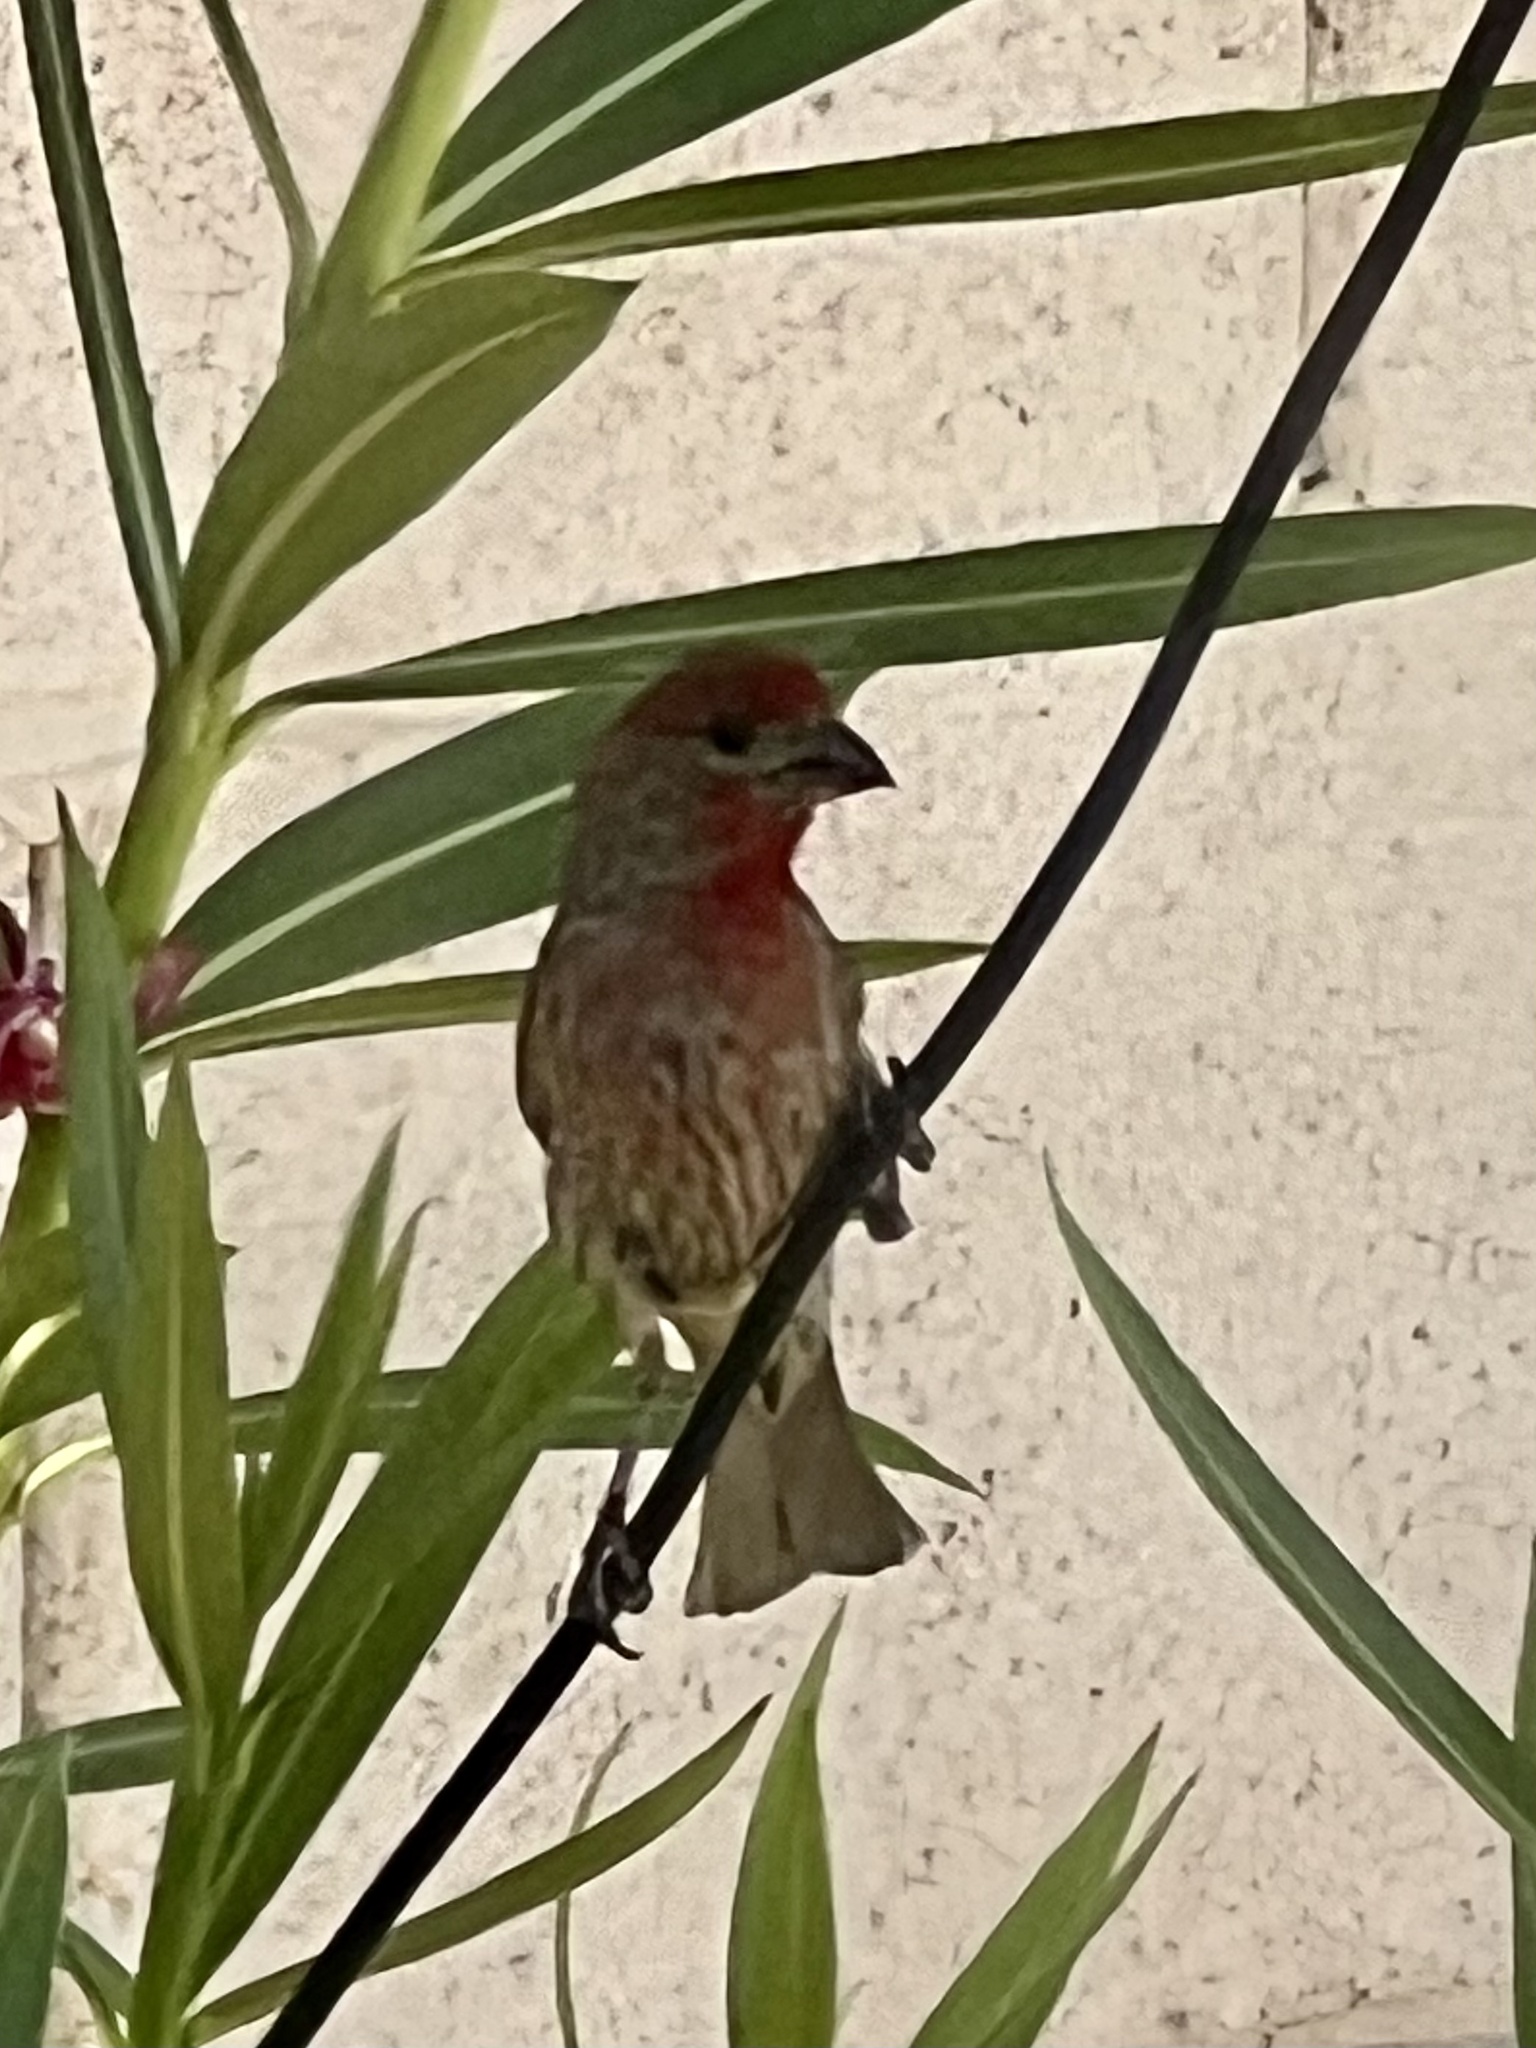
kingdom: Animalia
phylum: Chordata
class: Aves
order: Passeriformes
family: Fringillidae
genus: Haemorhous
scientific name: Haemorhous mexicanus
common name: House finch
